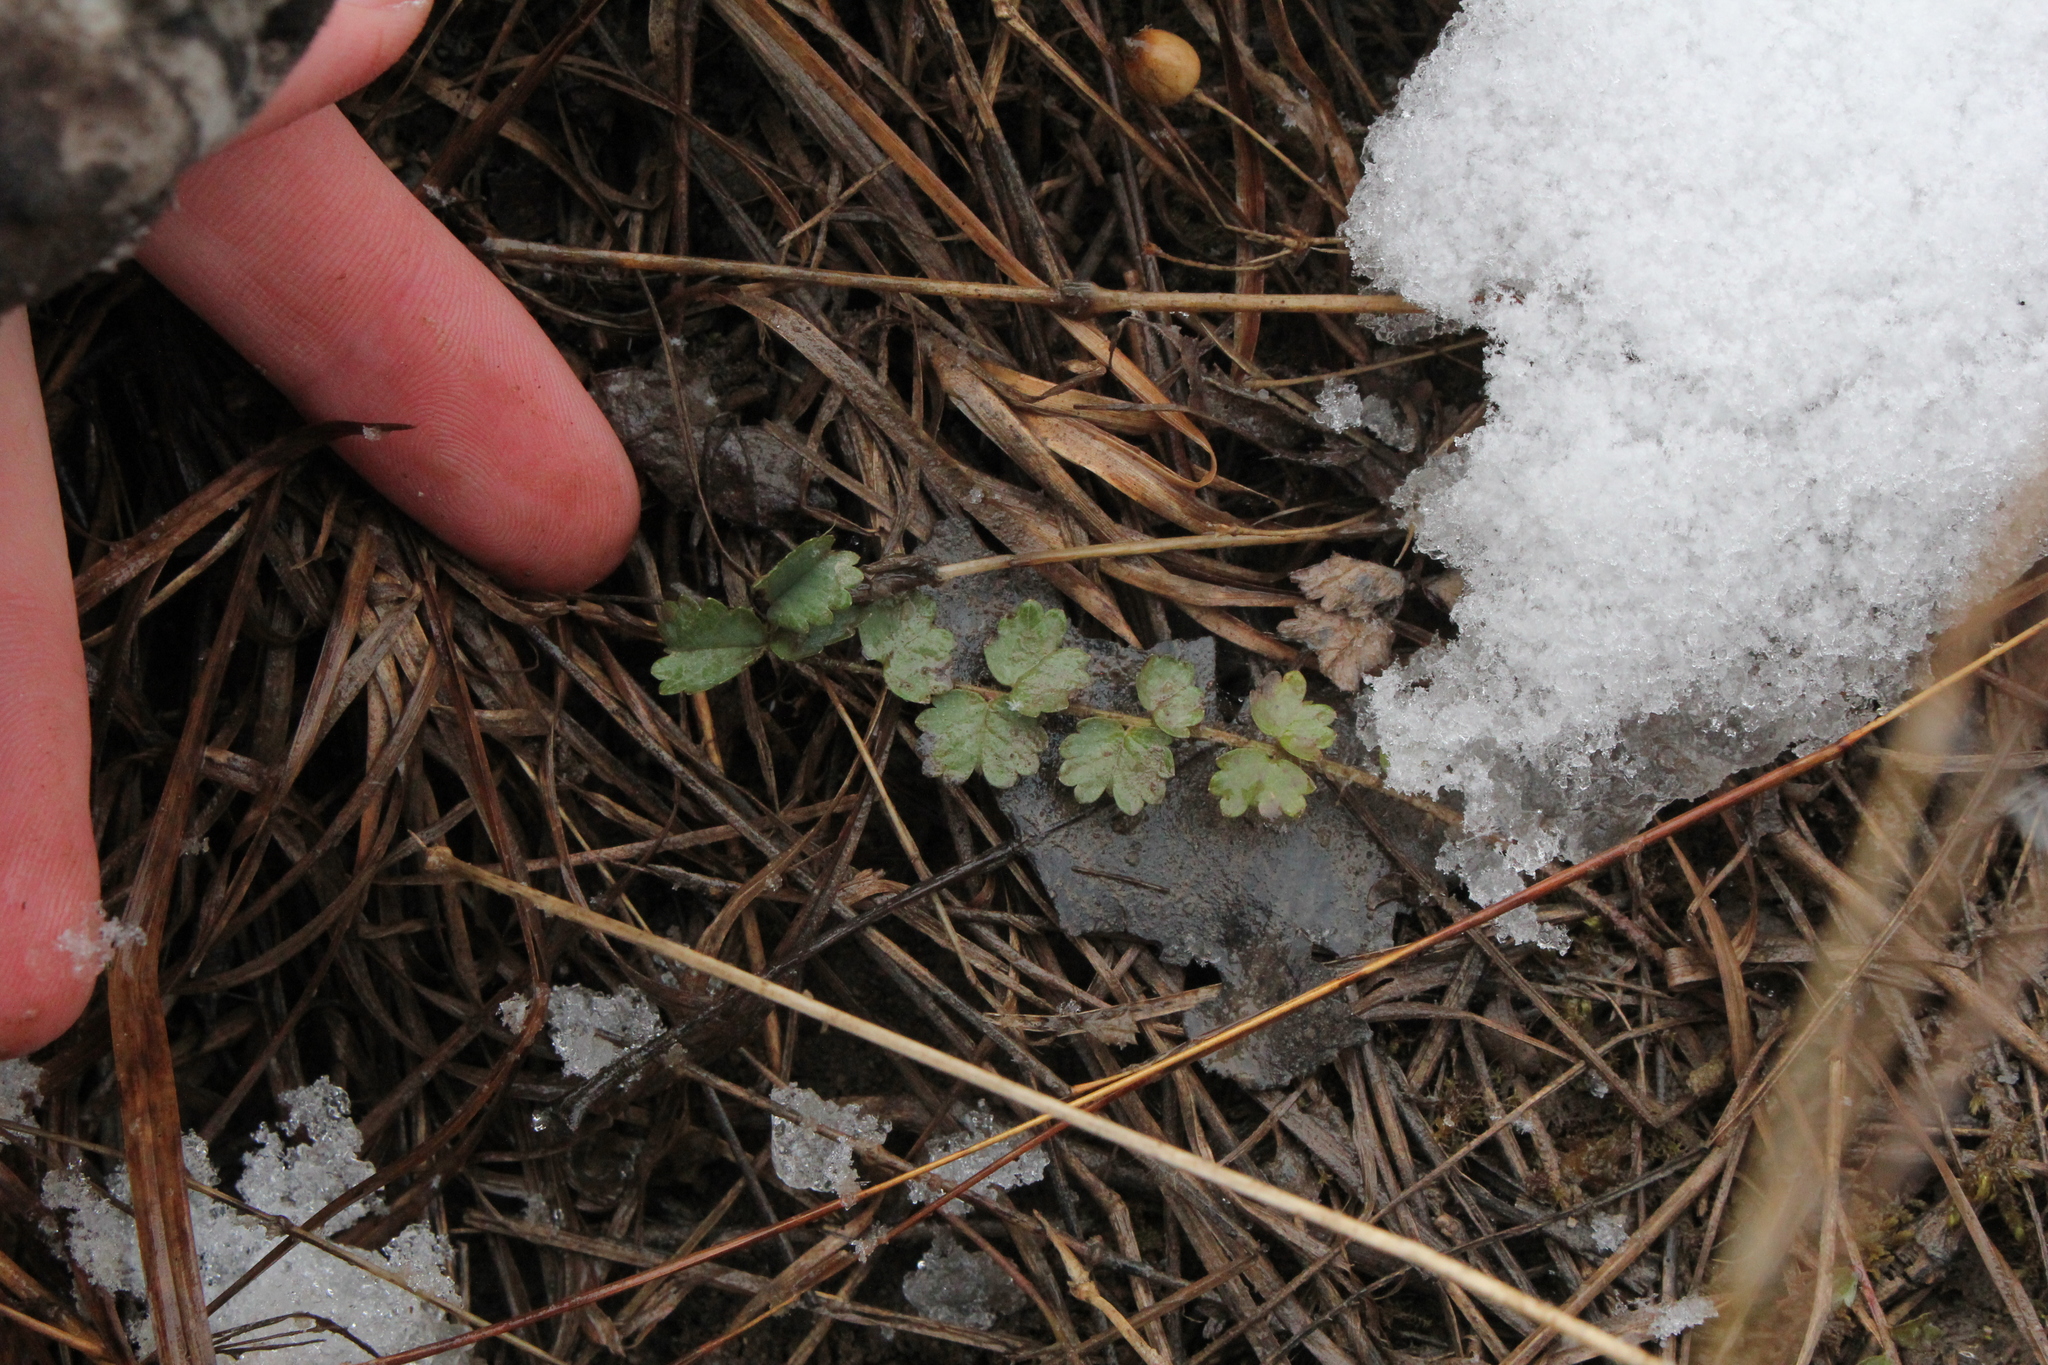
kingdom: Plantae
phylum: Tracheophyta
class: Magnoliopsida
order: Rosales
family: Rosaceae
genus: Poterium
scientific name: Poterium sanguisorba
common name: Salad burnet
